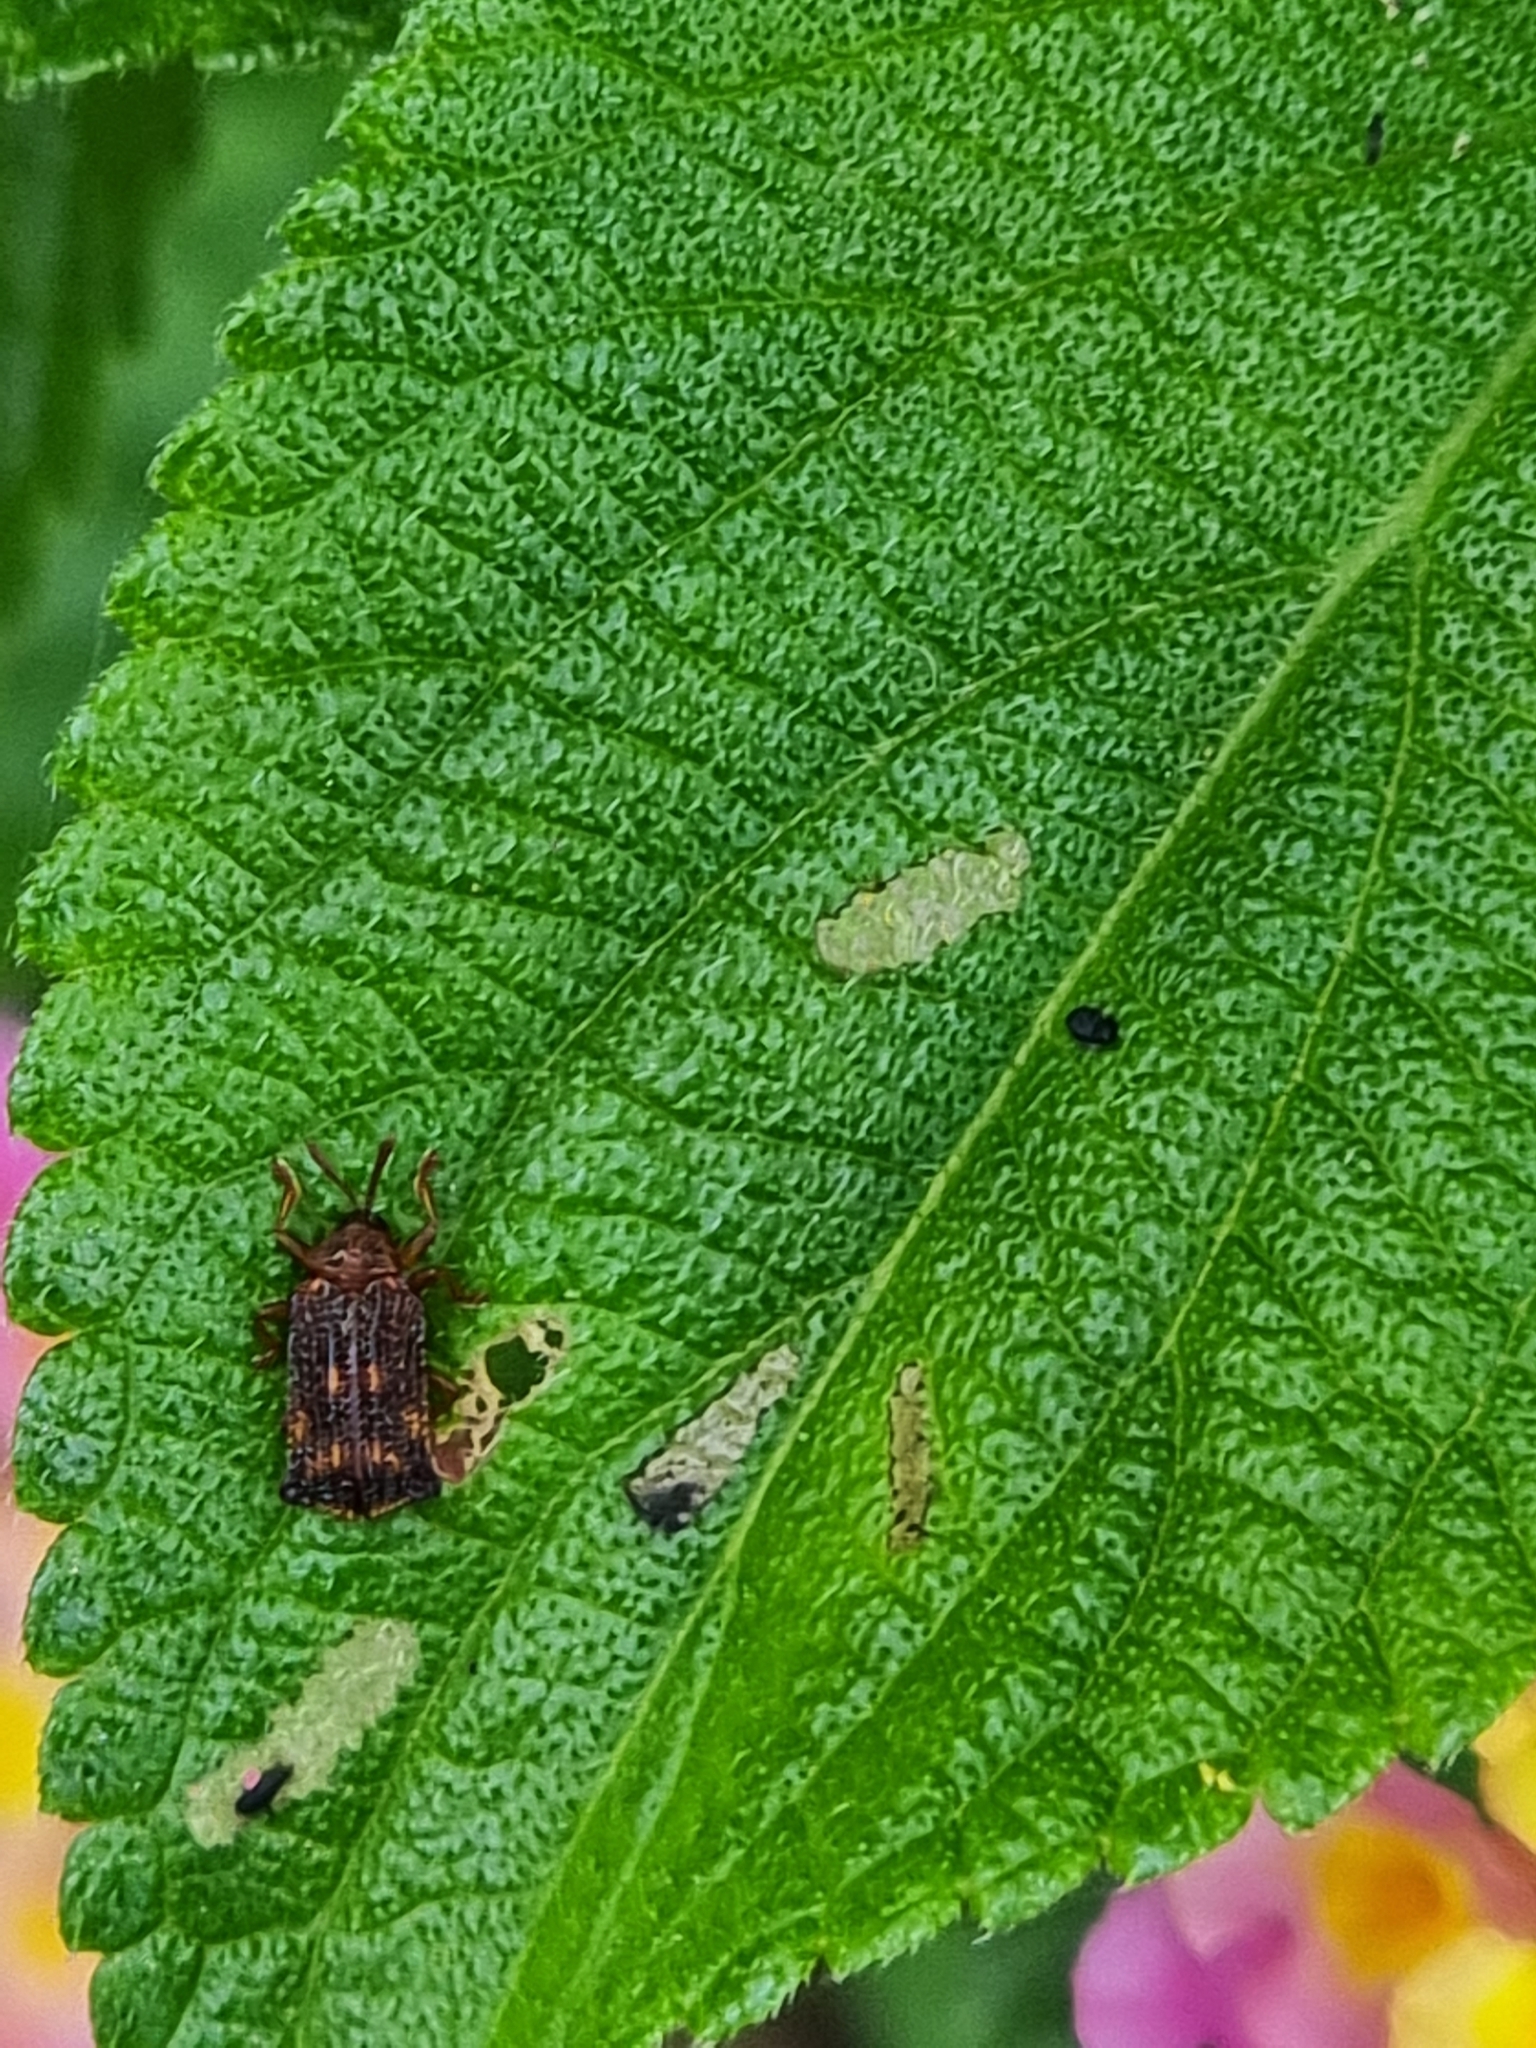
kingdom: Animalia
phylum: Arthropoda
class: Insecta
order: Coleoptera
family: Chrysomelidae
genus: Uroplata
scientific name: Uroplata girardi
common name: Lantana leafminer
